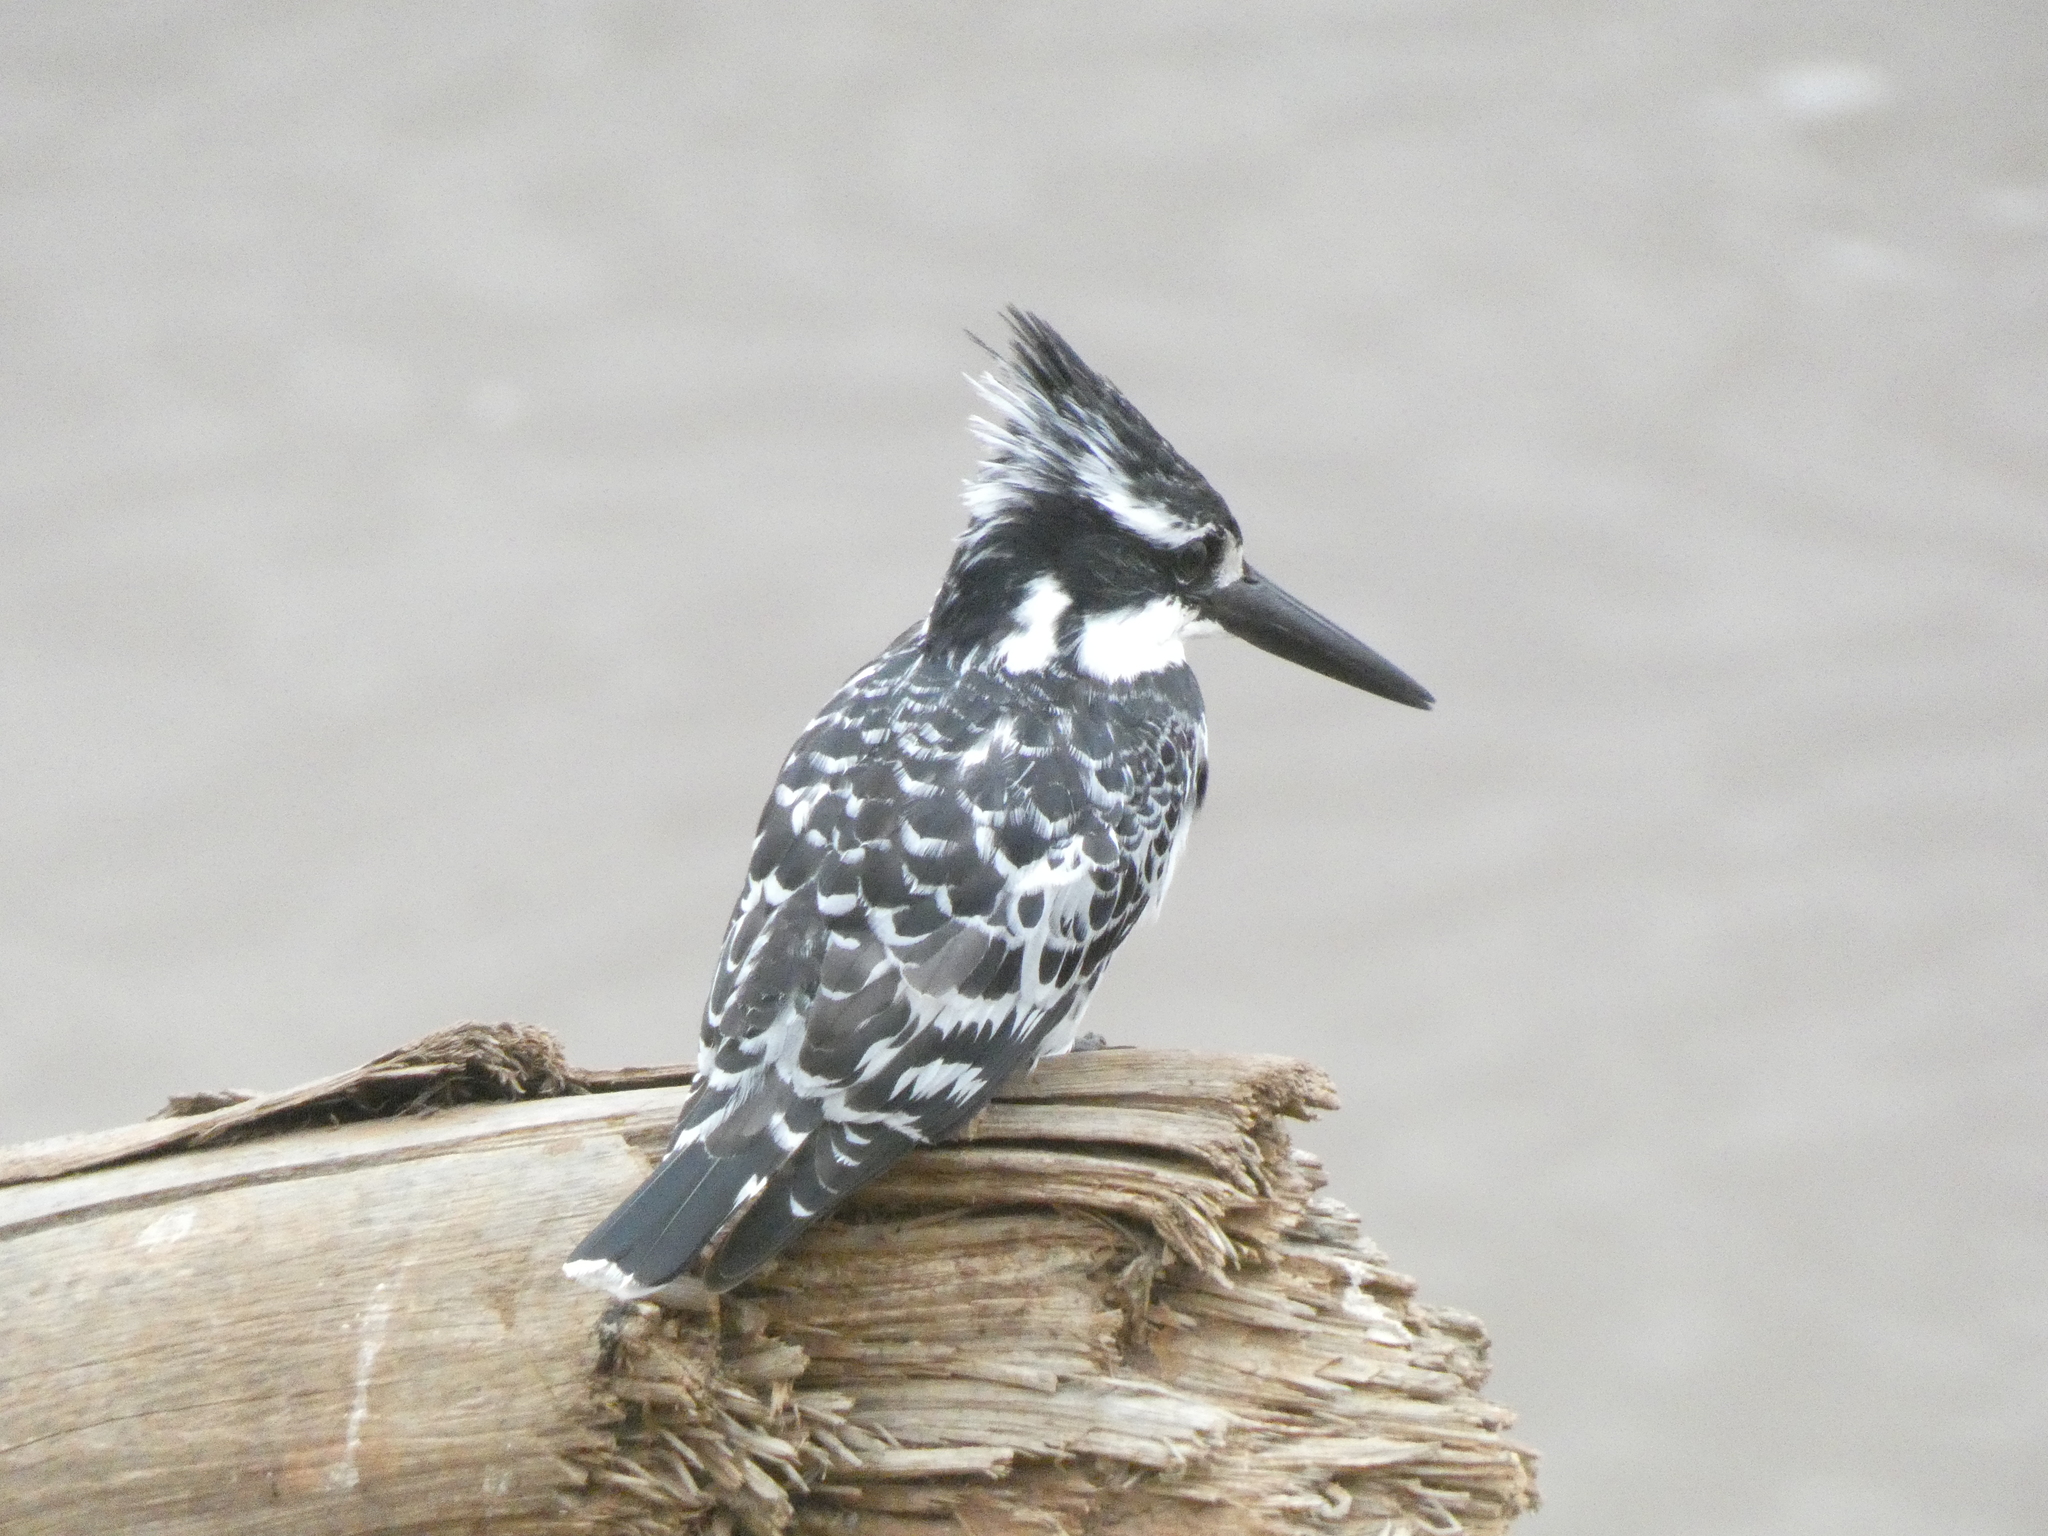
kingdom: Animalia
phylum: Chordata
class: Aves
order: Coraciiformes
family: Alcedinidae
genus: Ceryle
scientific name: Ceryle rudis
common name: Pied kingfisher
